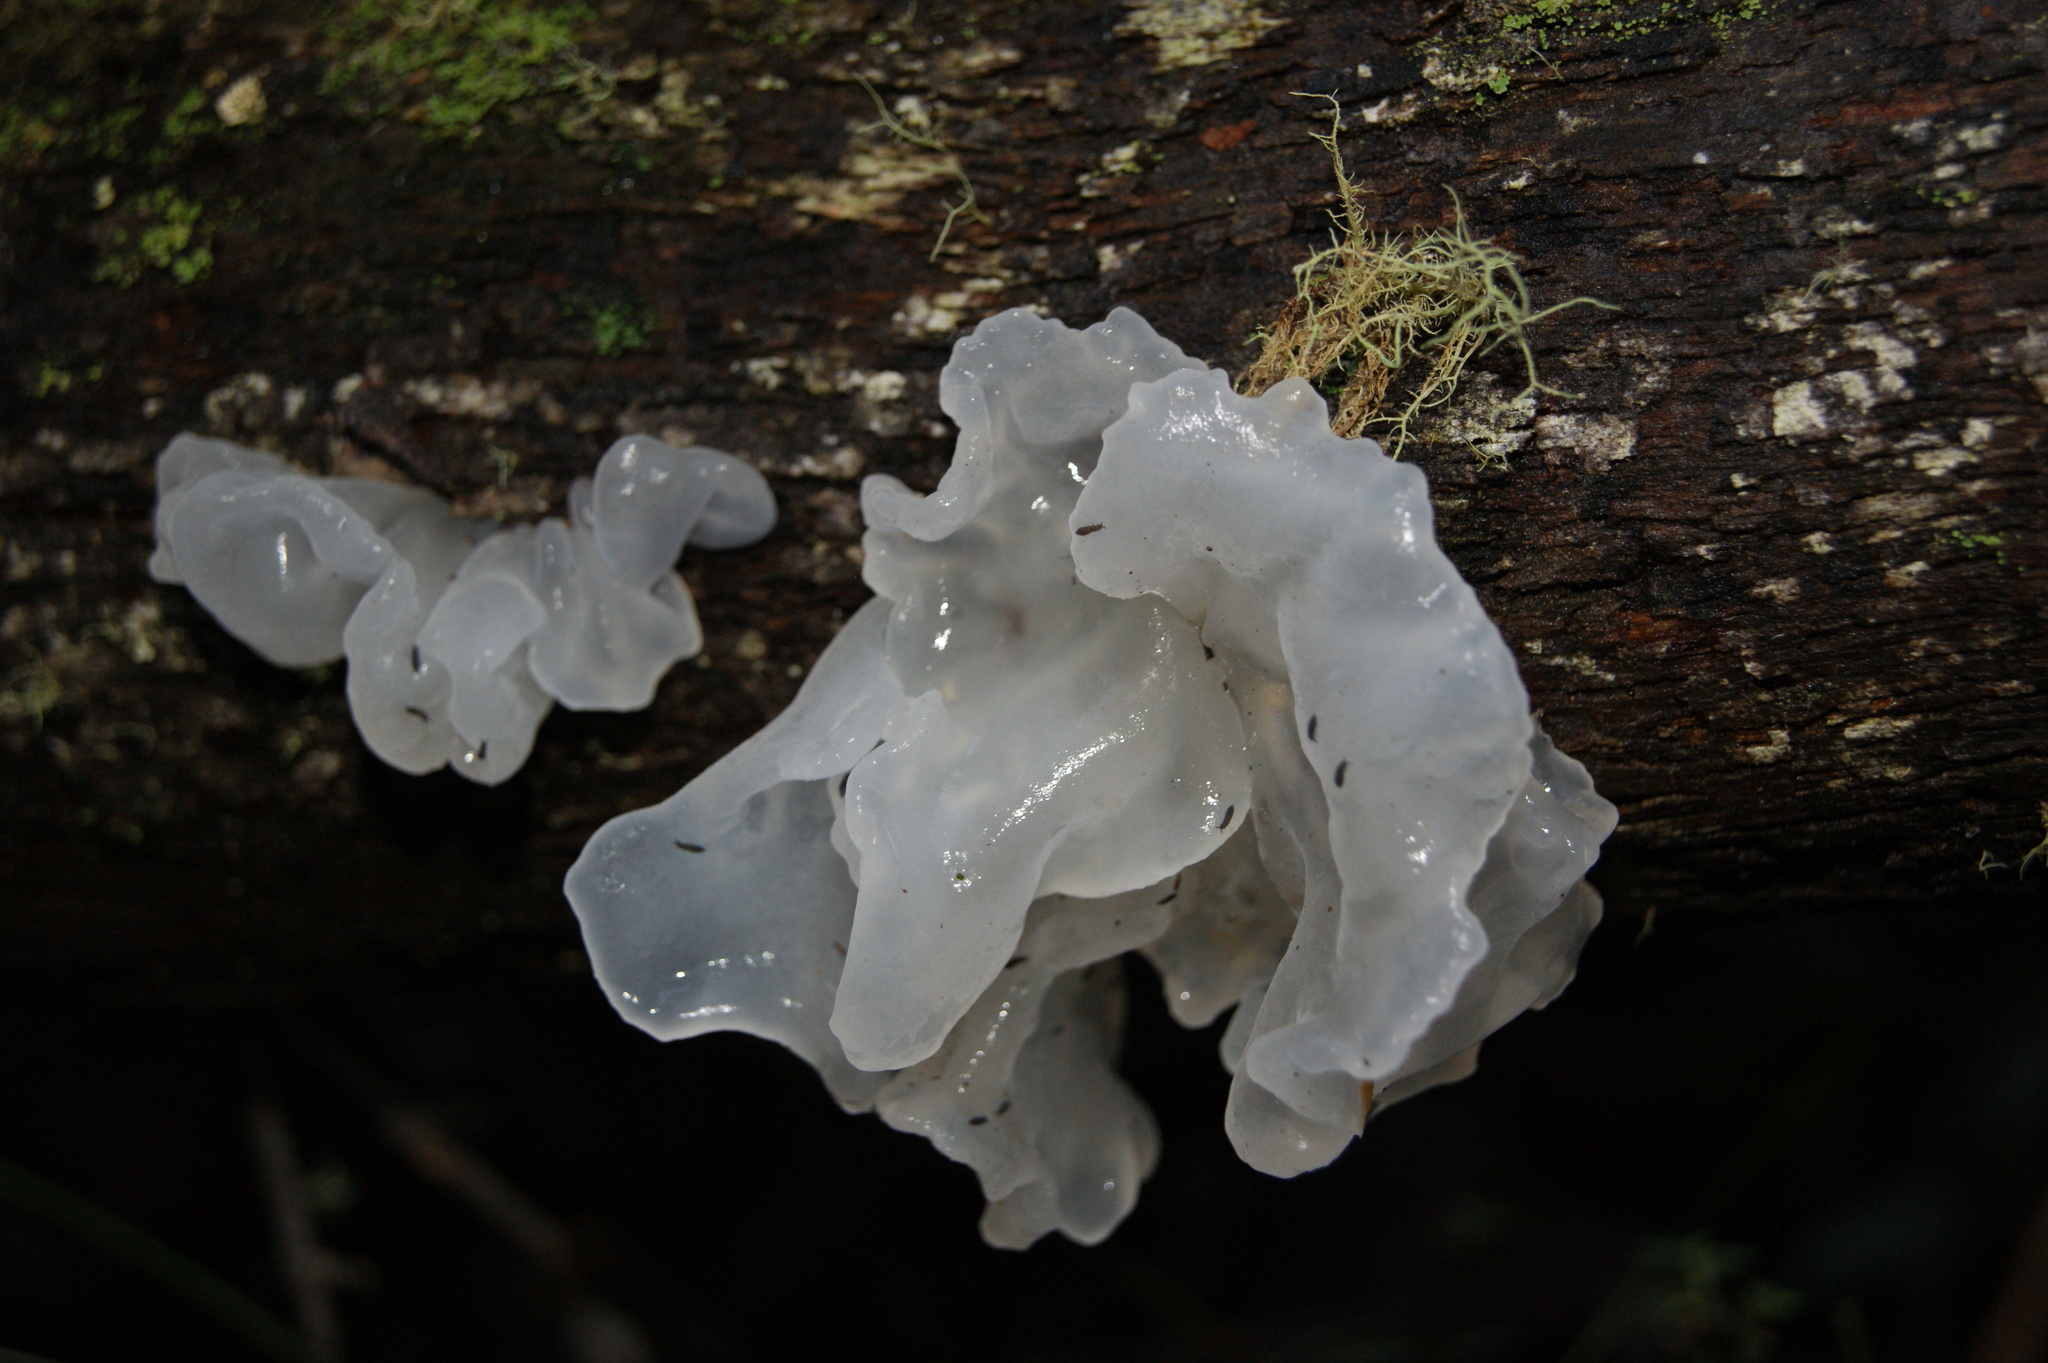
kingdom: Fungi
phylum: Basidiomycota
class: Tremellomycetes
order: Tremellales
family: Tremellaceae
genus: Tremella
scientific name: Tremella fuciformis
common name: Snow fungus
